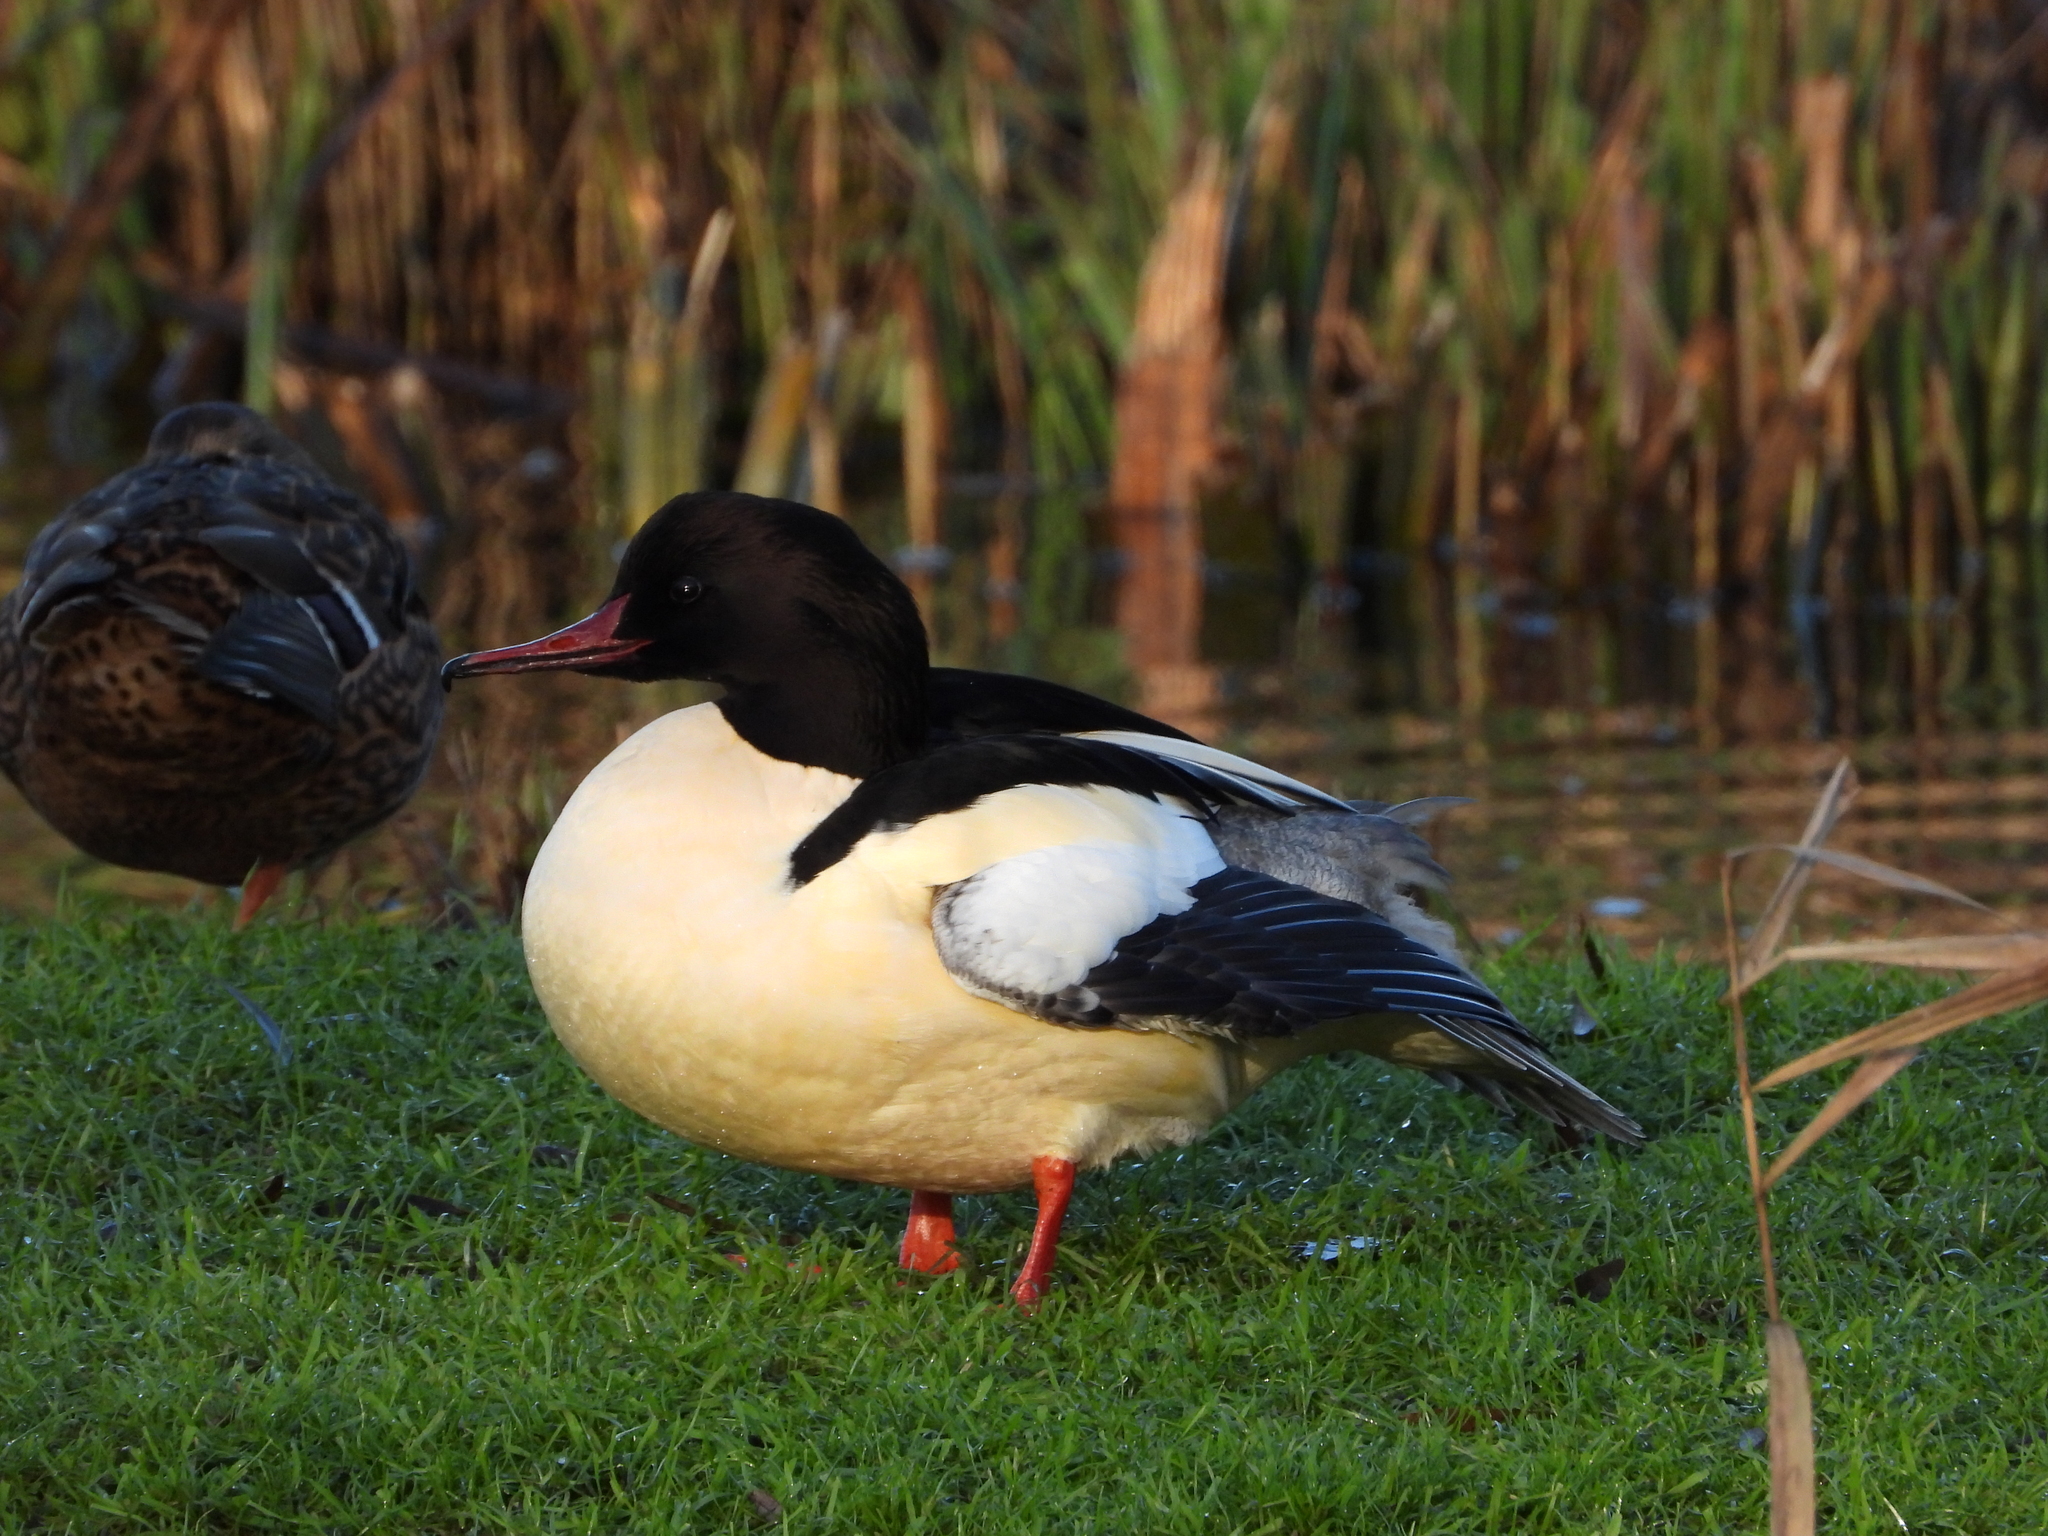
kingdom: Animalia
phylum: Chordata
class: Aves
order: Anseriformes
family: Anatidae
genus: Mergus
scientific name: Mergus merganser
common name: Common merganser
